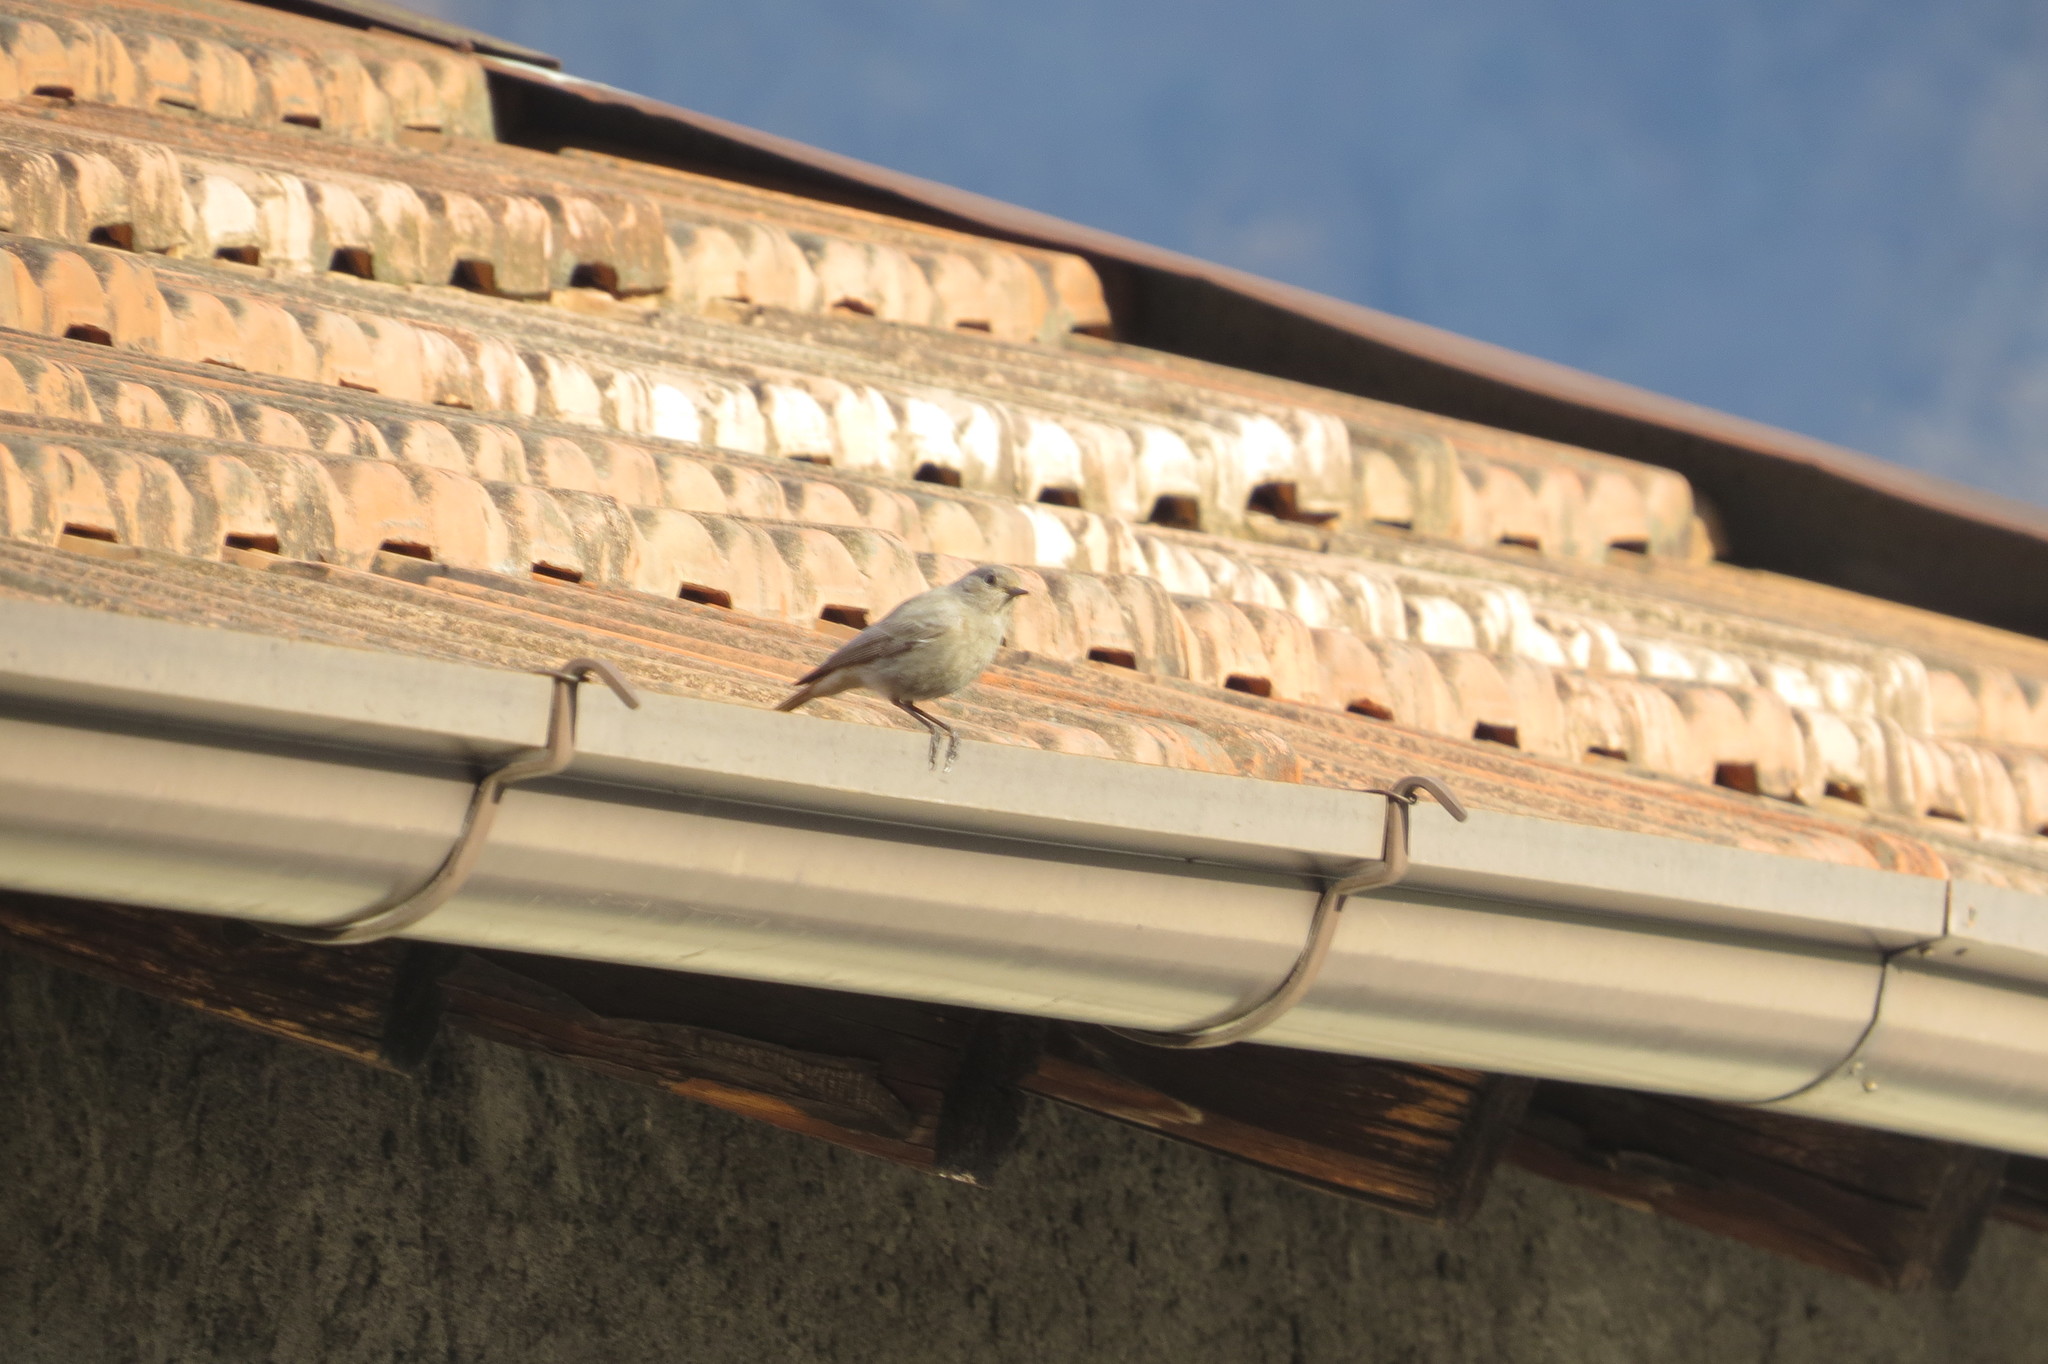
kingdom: Animalia
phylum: Chordata
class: Aves
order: Passeriformes
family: Muscicapidae
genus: Phoenicurus
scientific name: Phoenicurus ochruros
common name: Black redstart
